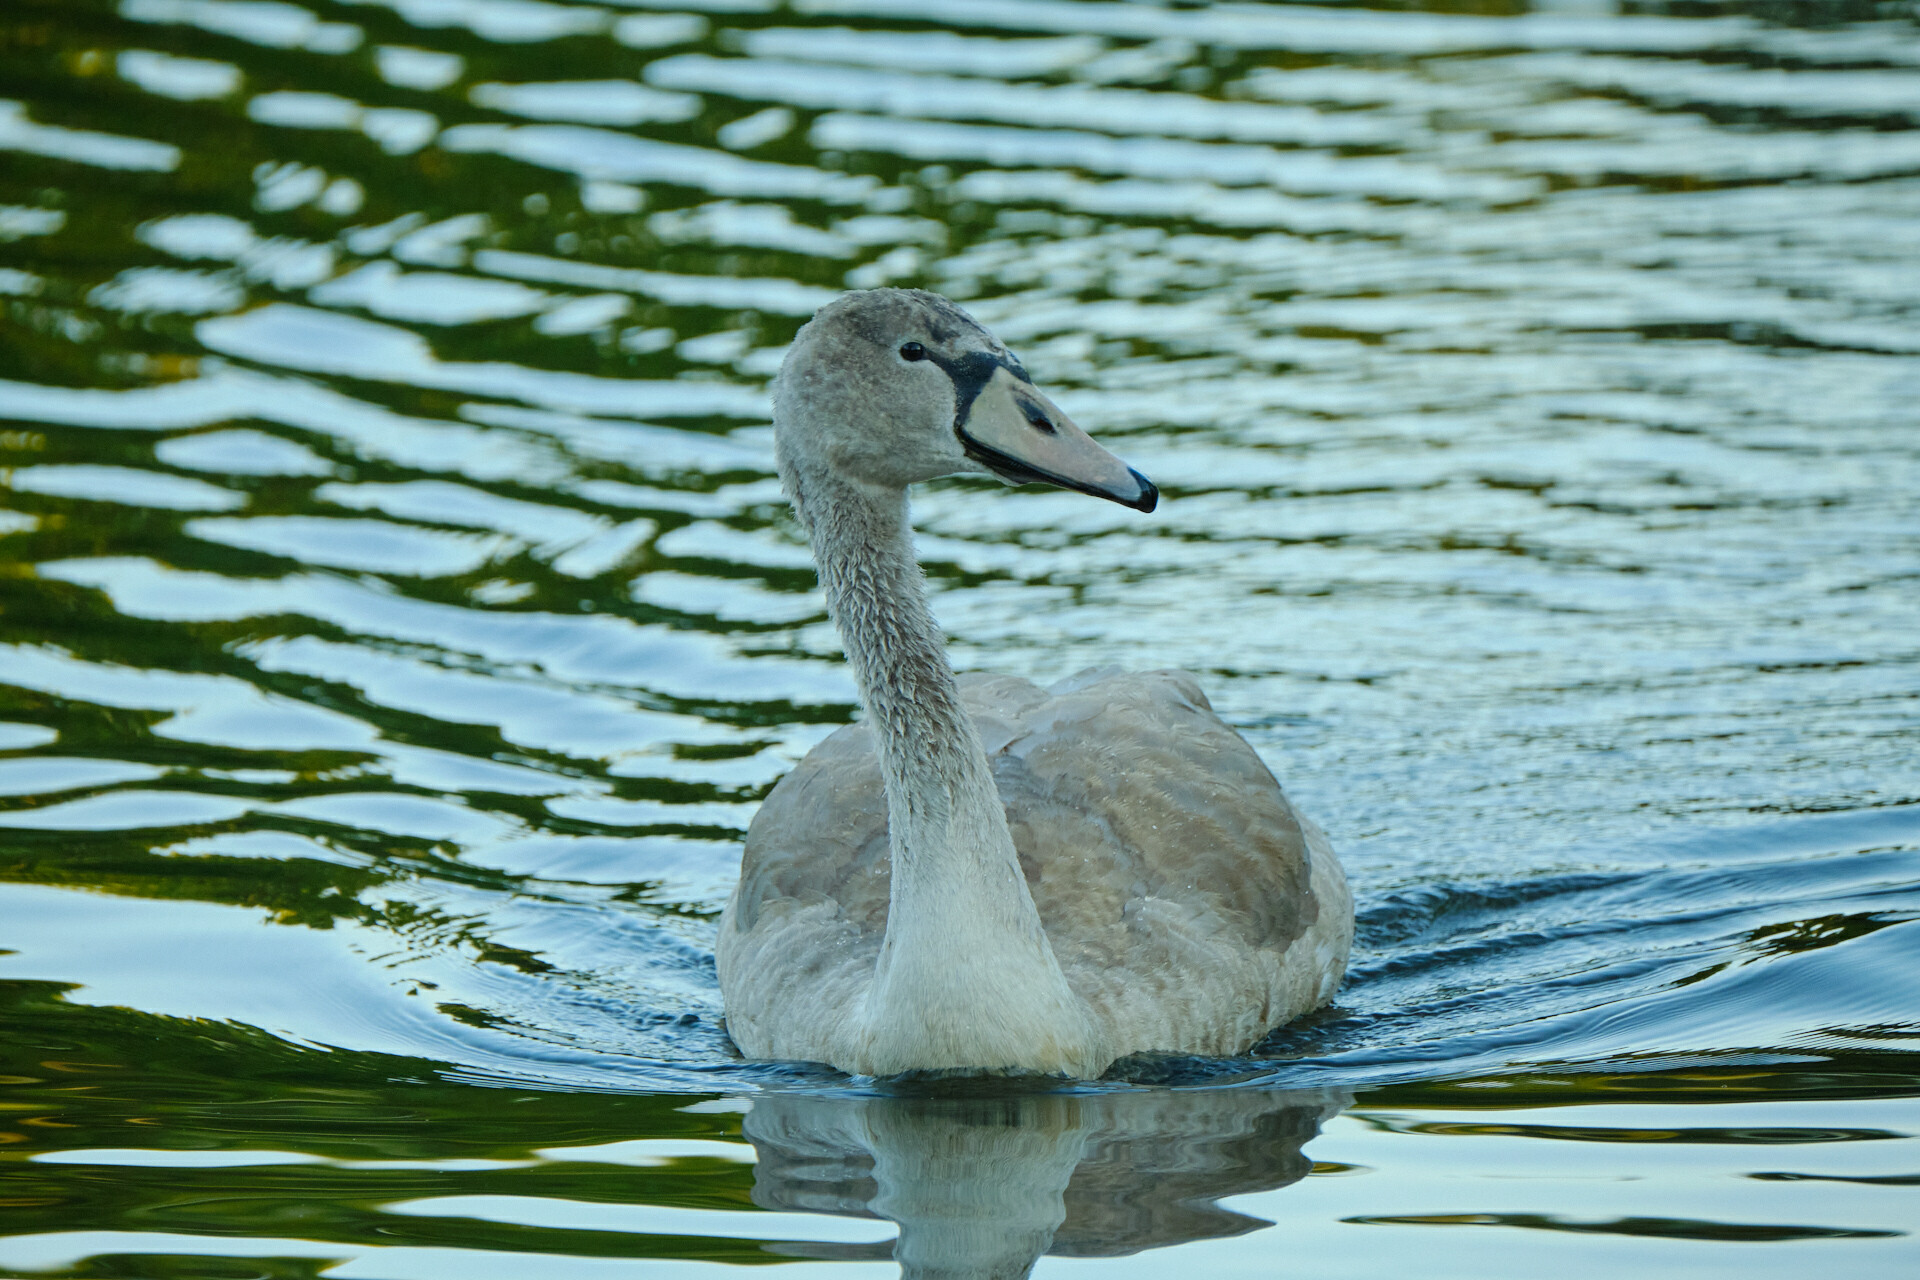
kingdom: Animalia
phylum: Chordata
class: Aves
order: Anseriformes
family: Anatidae
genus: Cygnus
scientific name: Cygnus olor
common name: Mute swan
